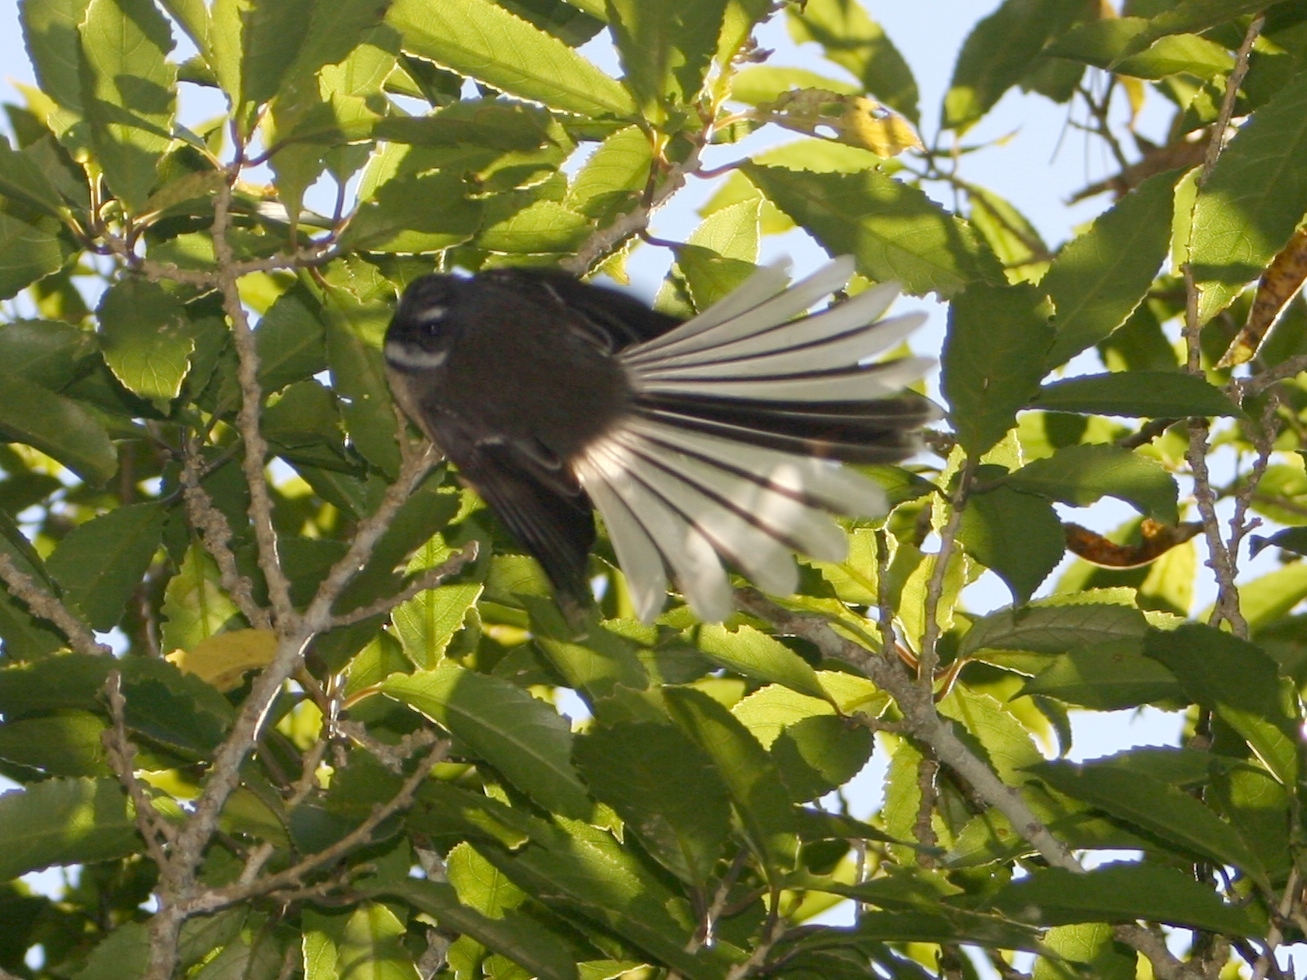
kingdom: Animalia
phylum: Chordata
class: Aves
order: Passeriformes
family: Rhipiduridae
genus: Rhipidura
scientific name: Rhipidura fuliginosa
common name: New zealand fantail
